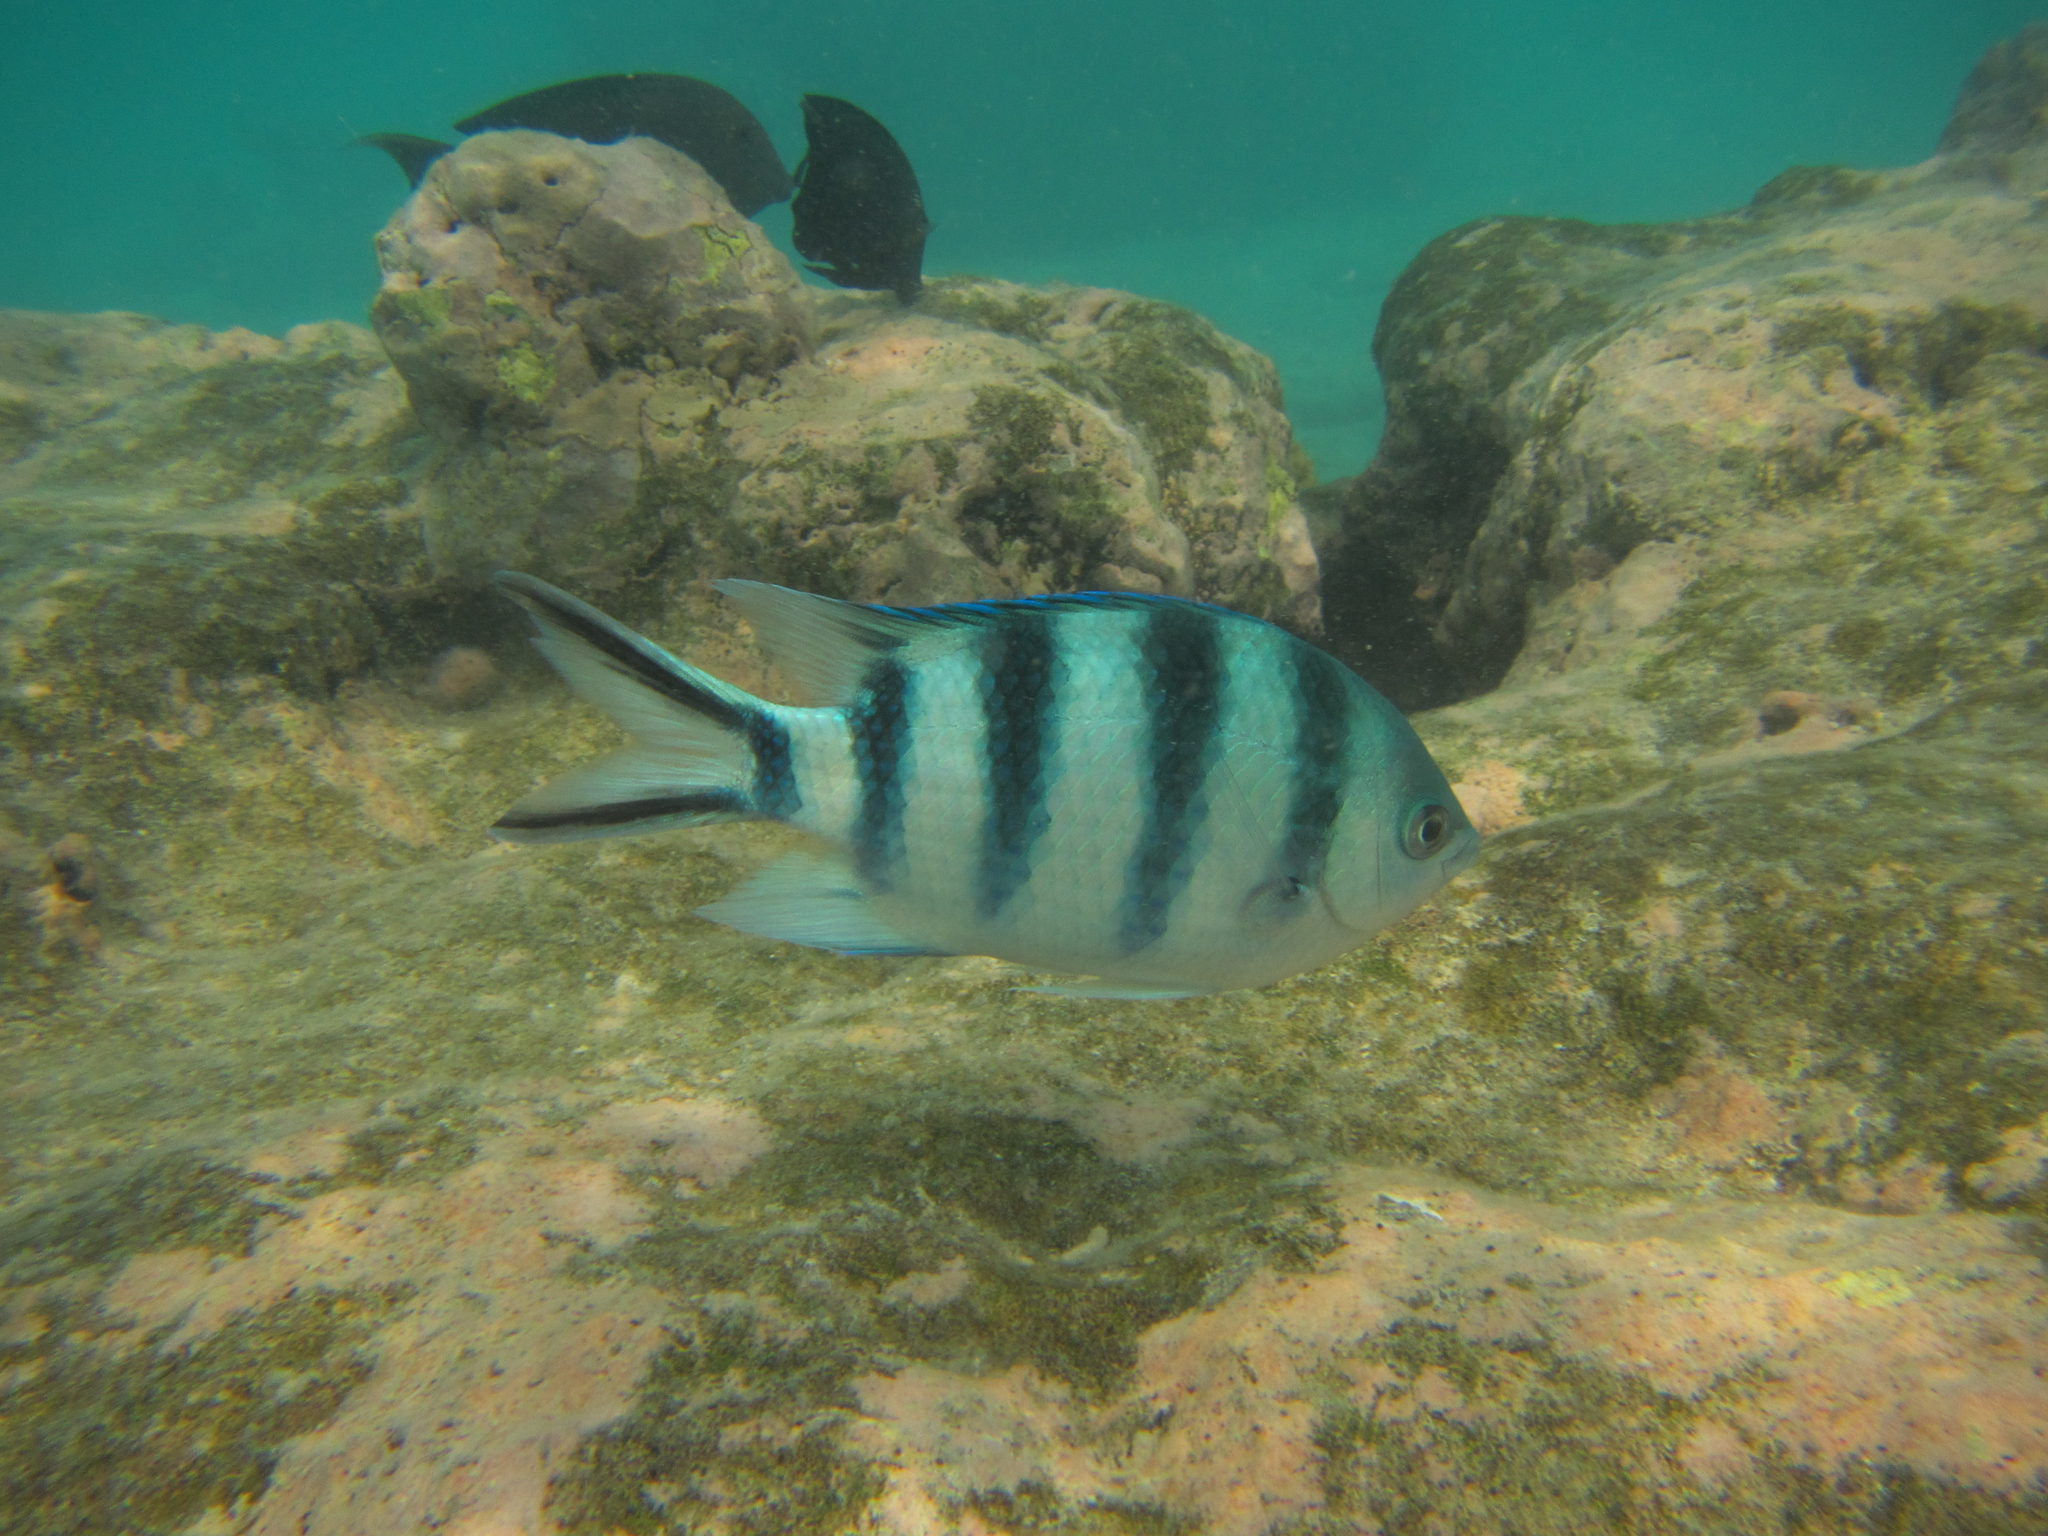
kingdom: Animalia
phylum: Chordata
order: Perciformes
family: Pomacentridae
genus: Abudefduf
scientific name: Abudefduf sexfasciatus
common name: Scissortail sergeant
